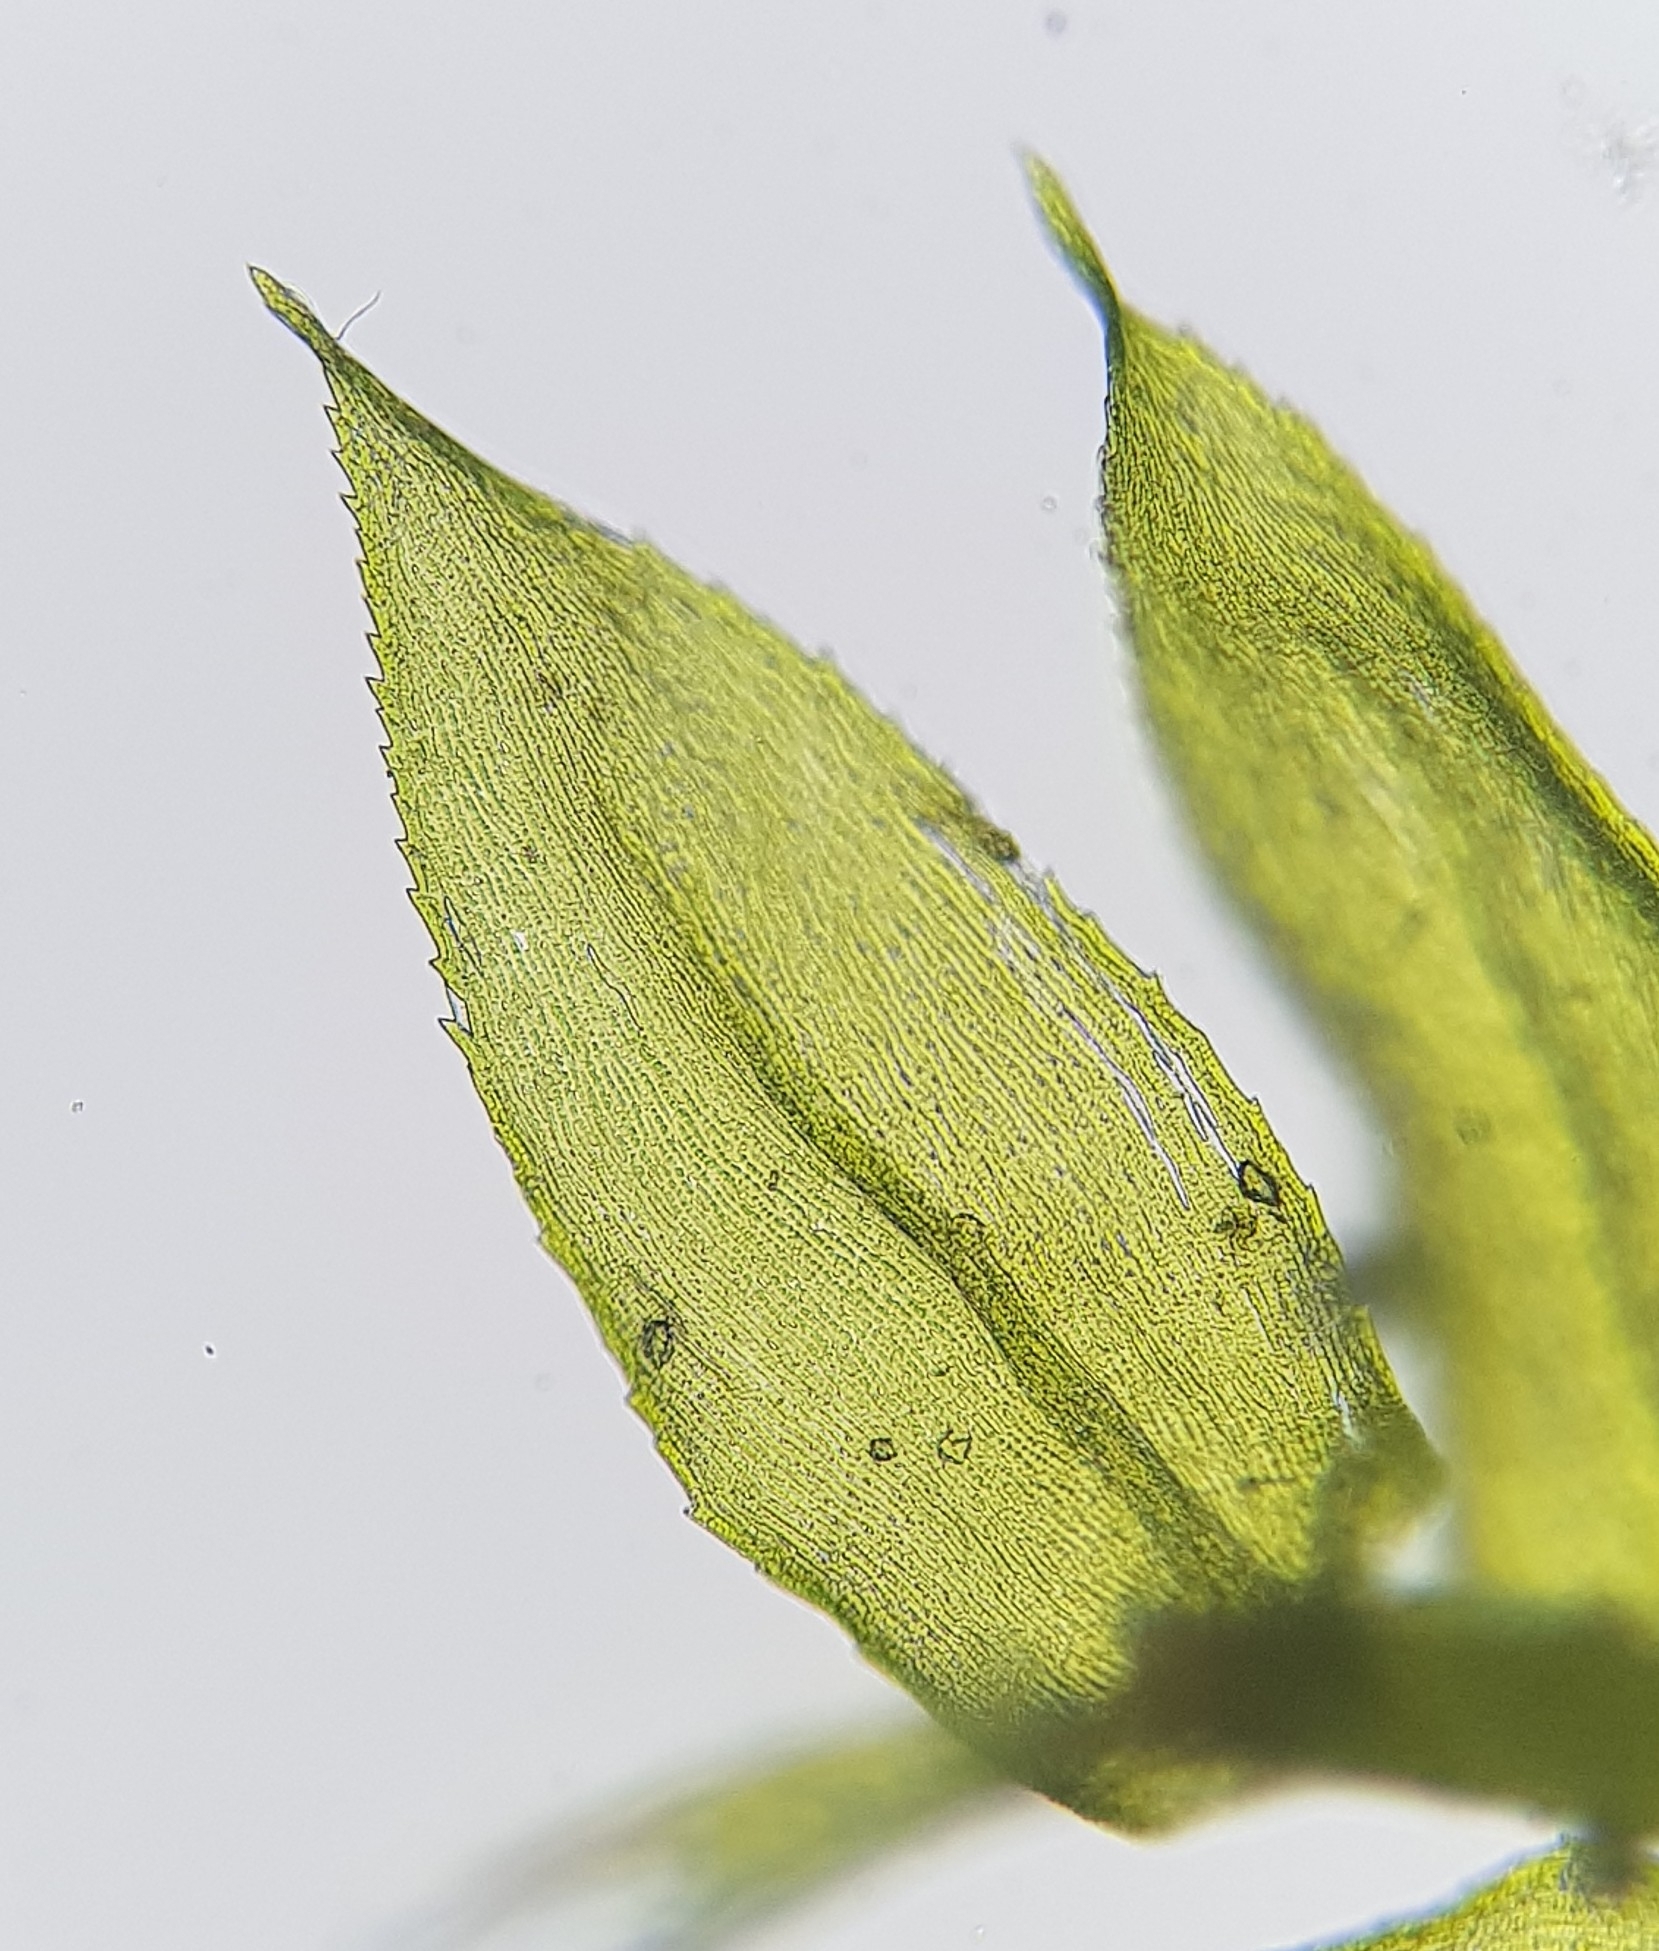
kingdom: Plantae
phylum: Bryophyta
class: Bryopsida
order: Hypnales
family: Brachytheciaceae
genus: Oxyrrhynchium
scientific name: Oxyrrhynchium hians
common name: Spreading beaked moss
